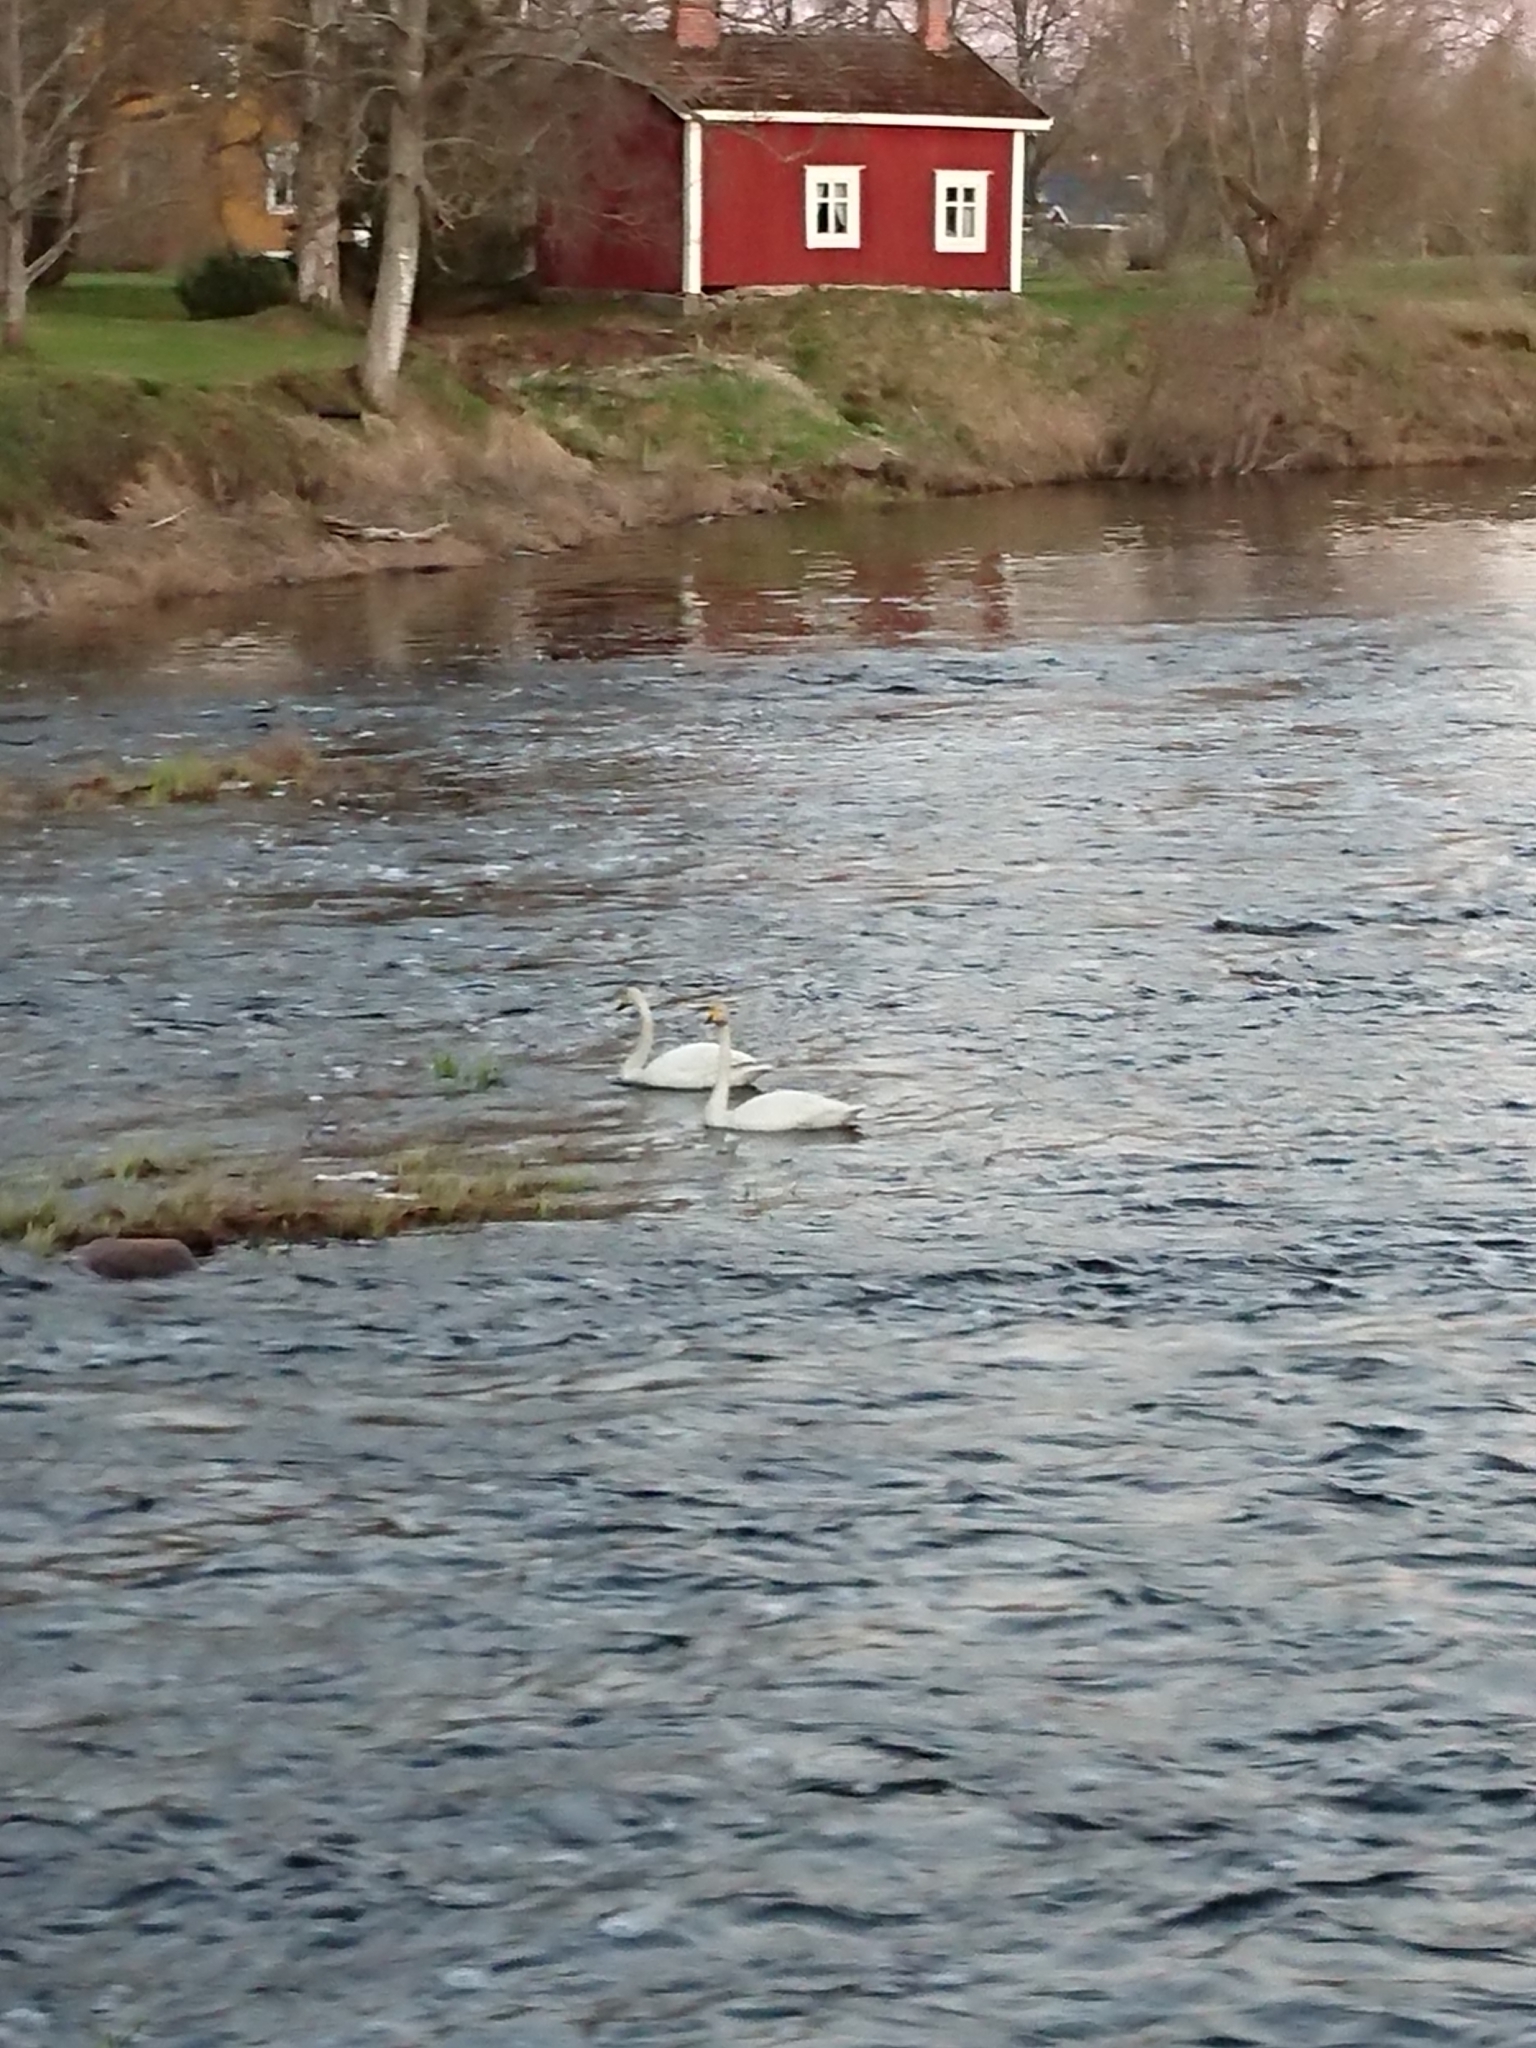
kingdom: Animalia
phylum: Chordata
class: Aves
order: Anseriformes
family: Anatidae
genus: Cygnus
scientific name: Cygnus cygnus
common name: Whooper swan
